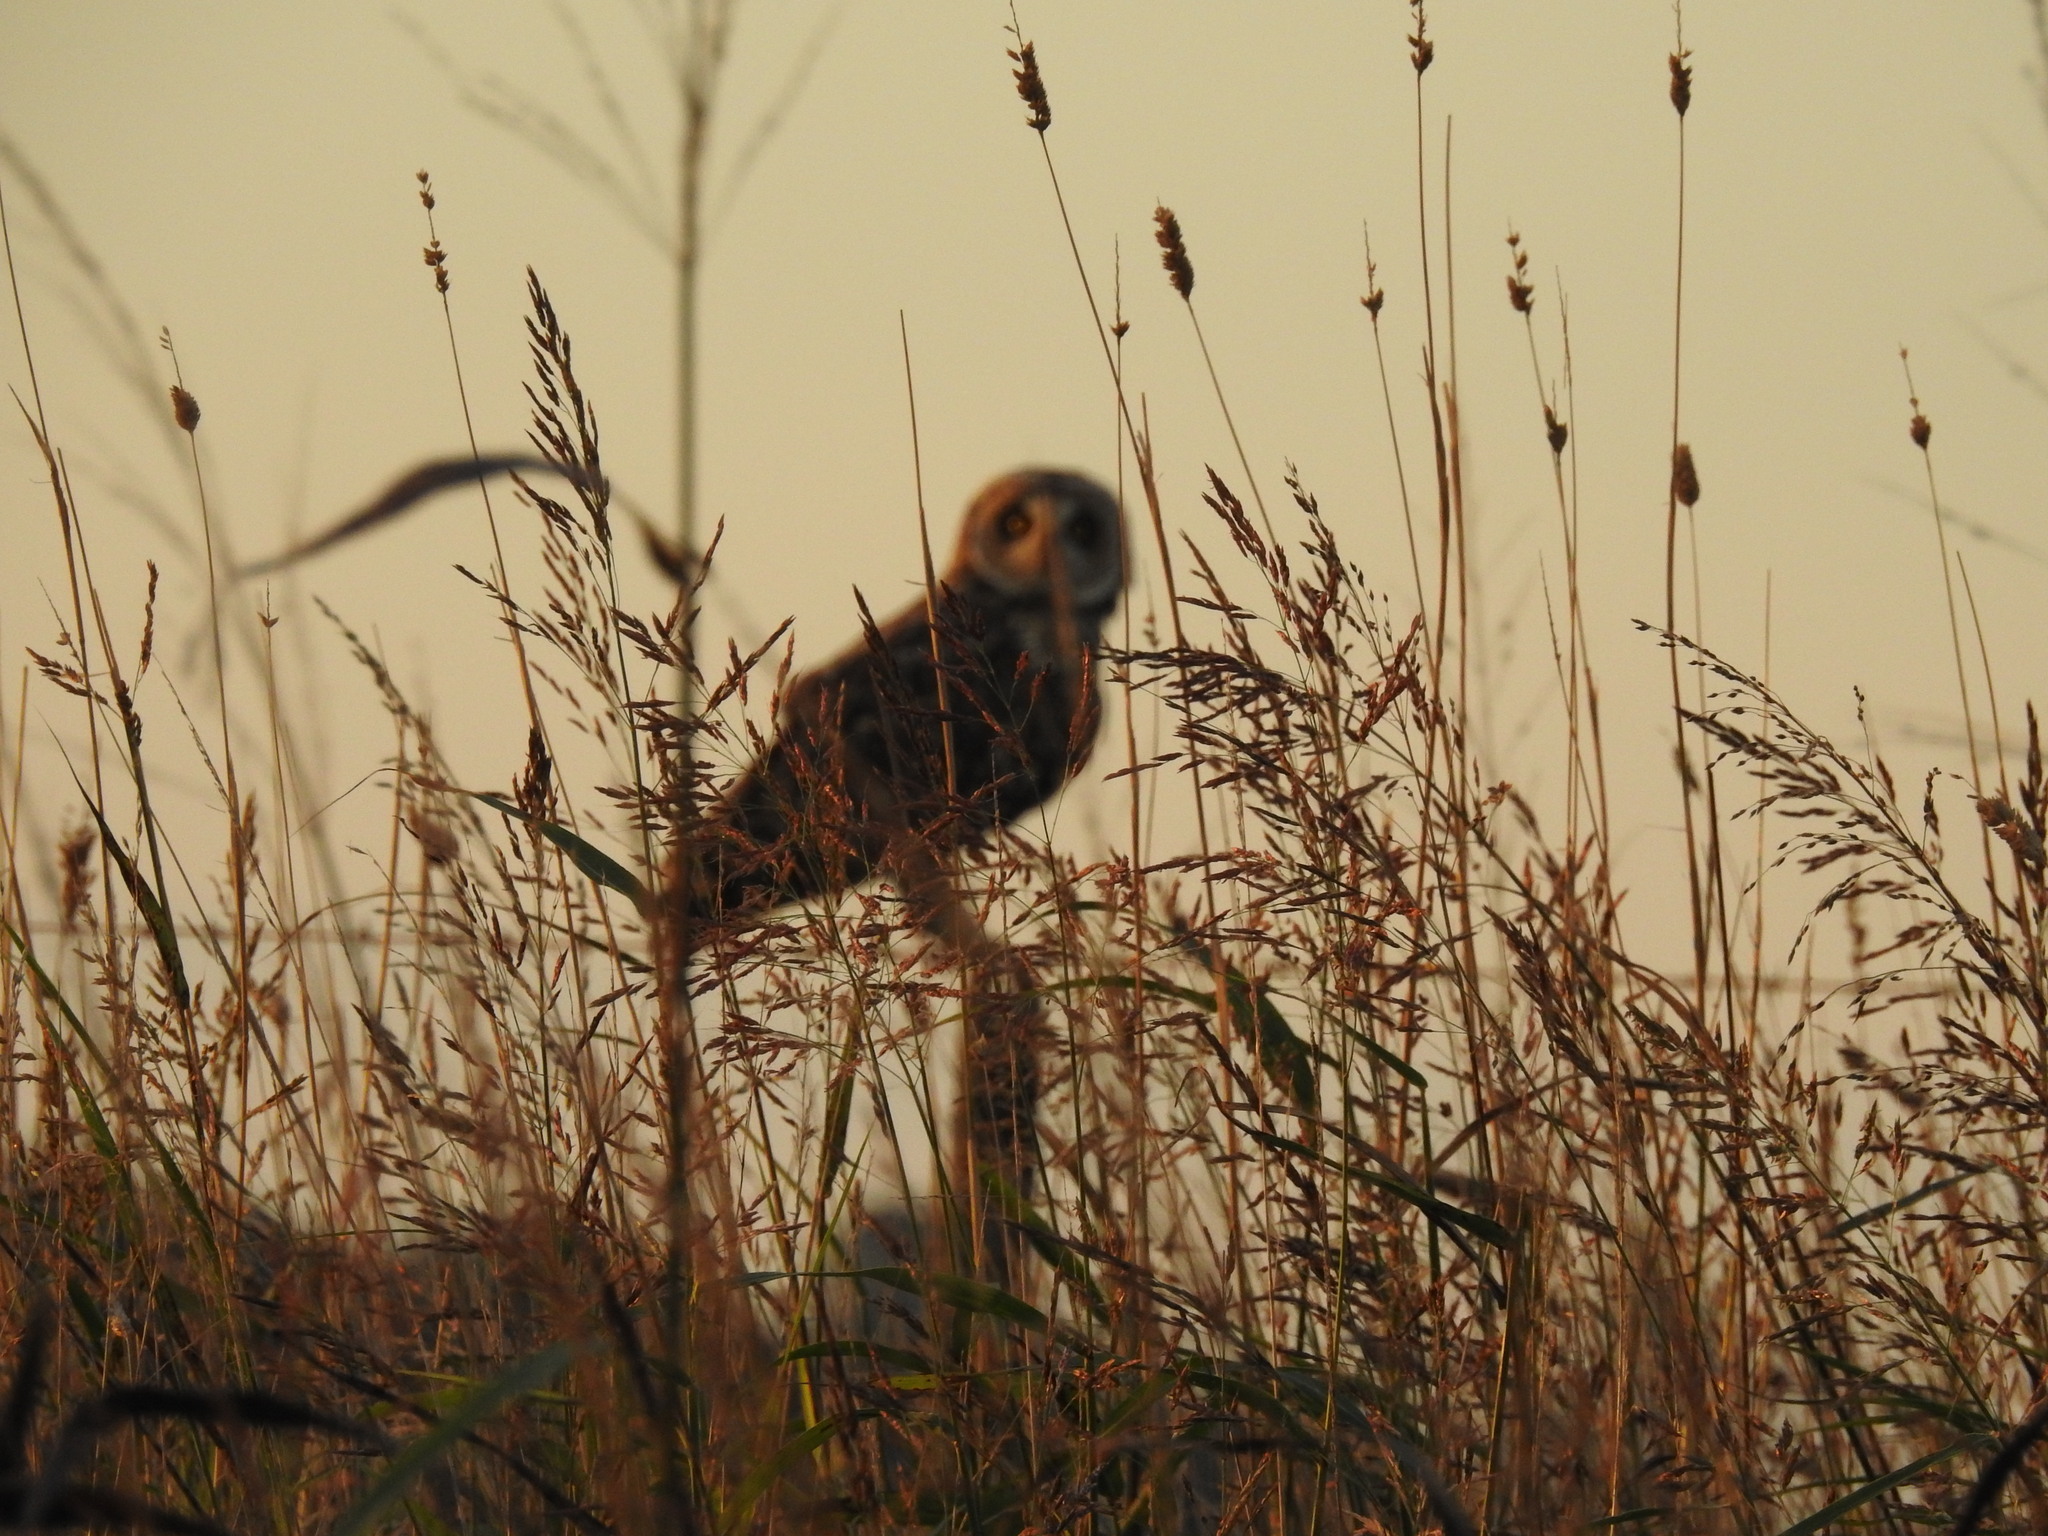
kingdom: Animalia
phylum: Chordata
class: Aves
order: Strigiformes
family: Strigidae
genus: Asio
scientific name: Asio flammeus
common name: Short-eared owl
